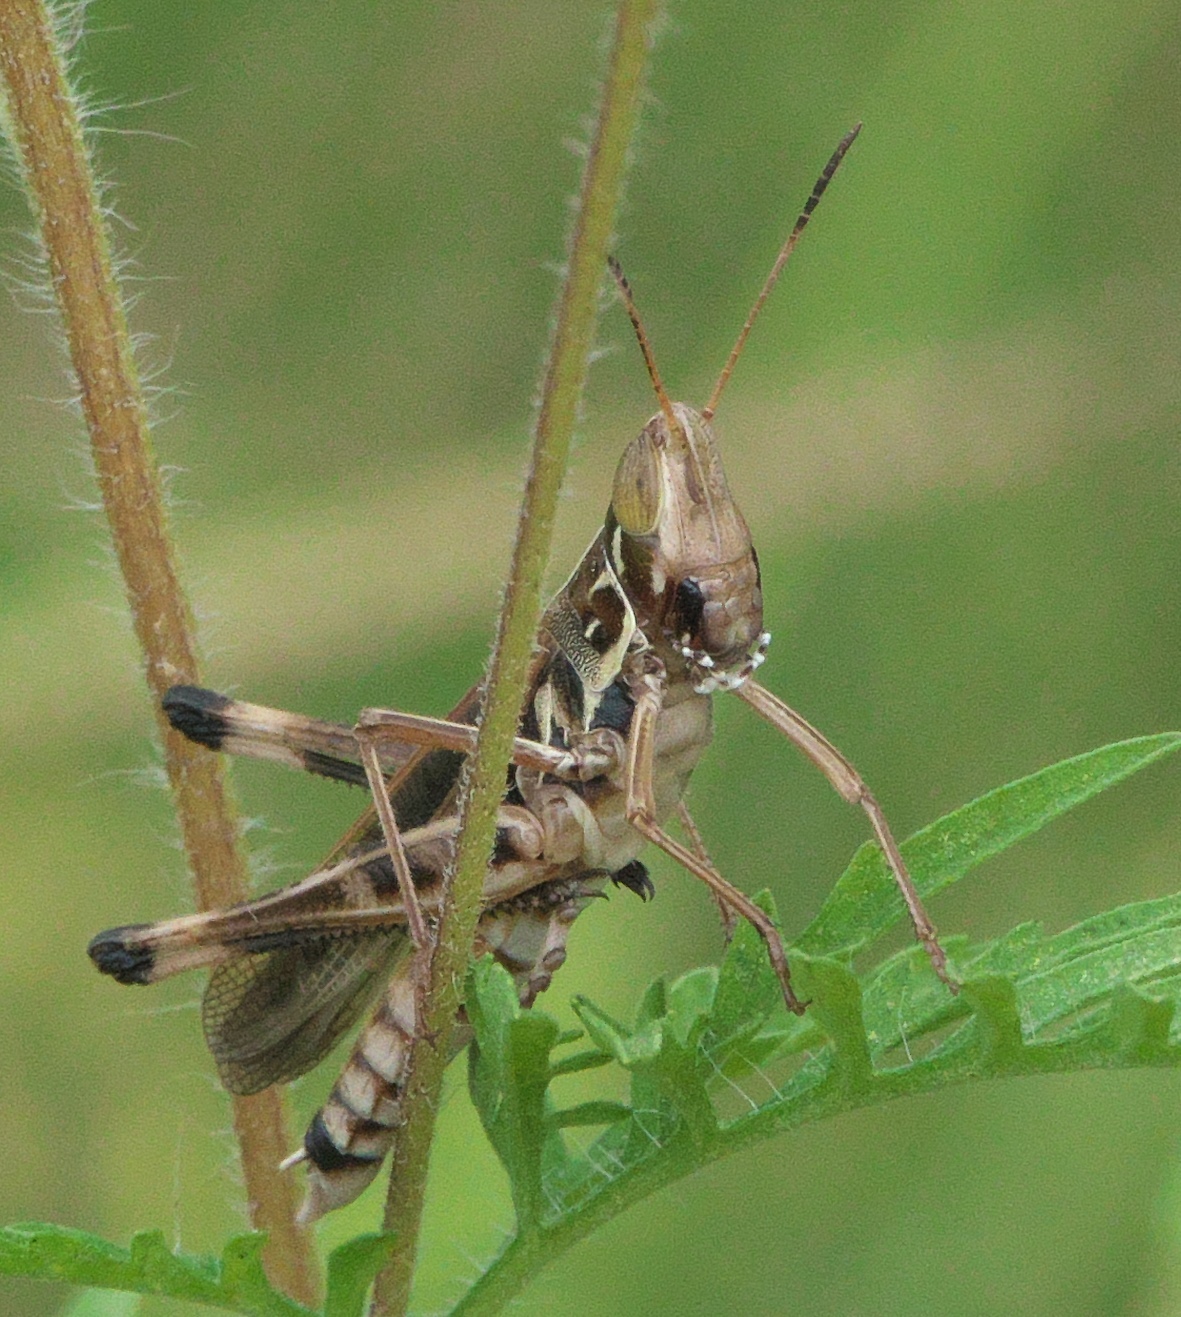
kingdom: Animalia
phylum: Arthropoda
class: Insecta
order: Orthoptera
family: Acrididae
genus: Syrbula
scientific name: Syrbula admirabilis
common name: Handsome grasshopper
